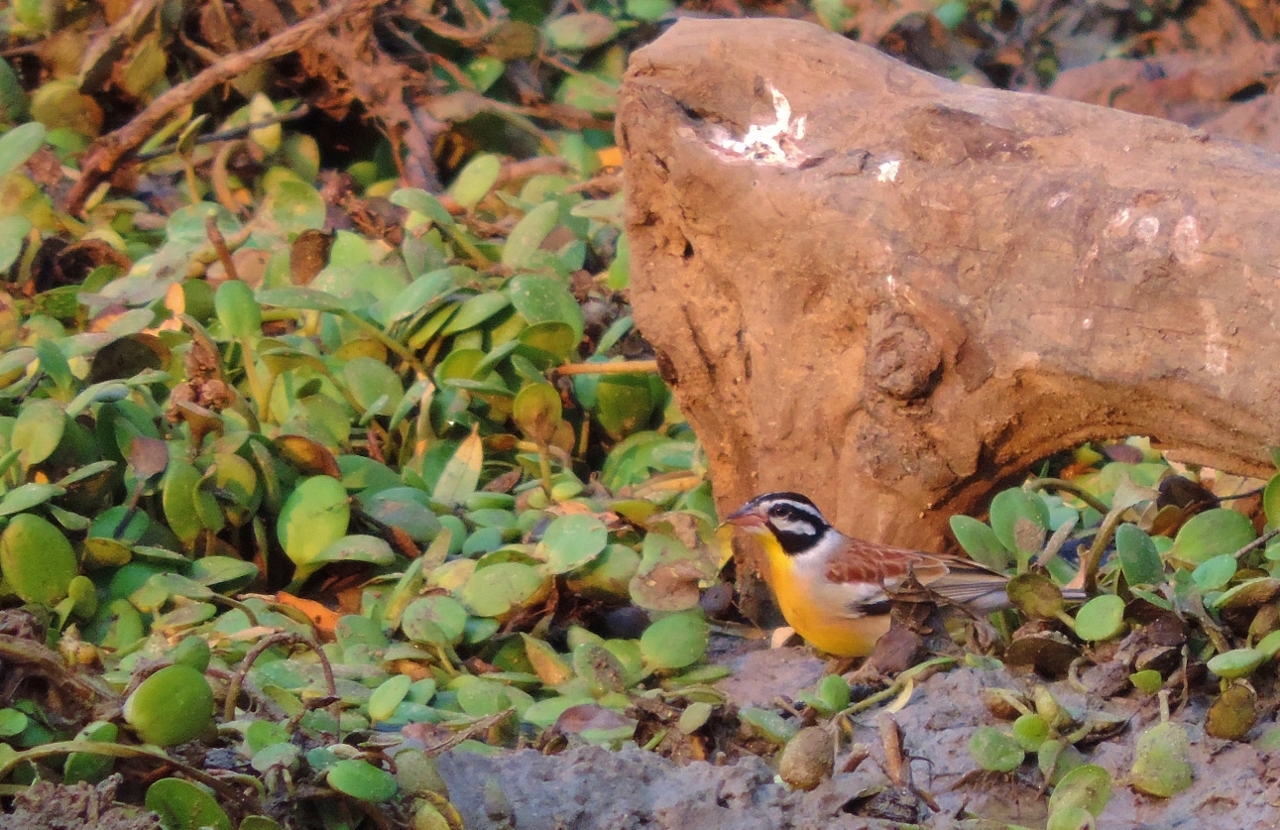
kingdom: Animalia
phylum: Chordata
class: Aves
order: Passeriformes
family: Emberizidae
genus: Emberiza
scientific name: Emberiza flaviventris
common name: Golden-breasted bunting
